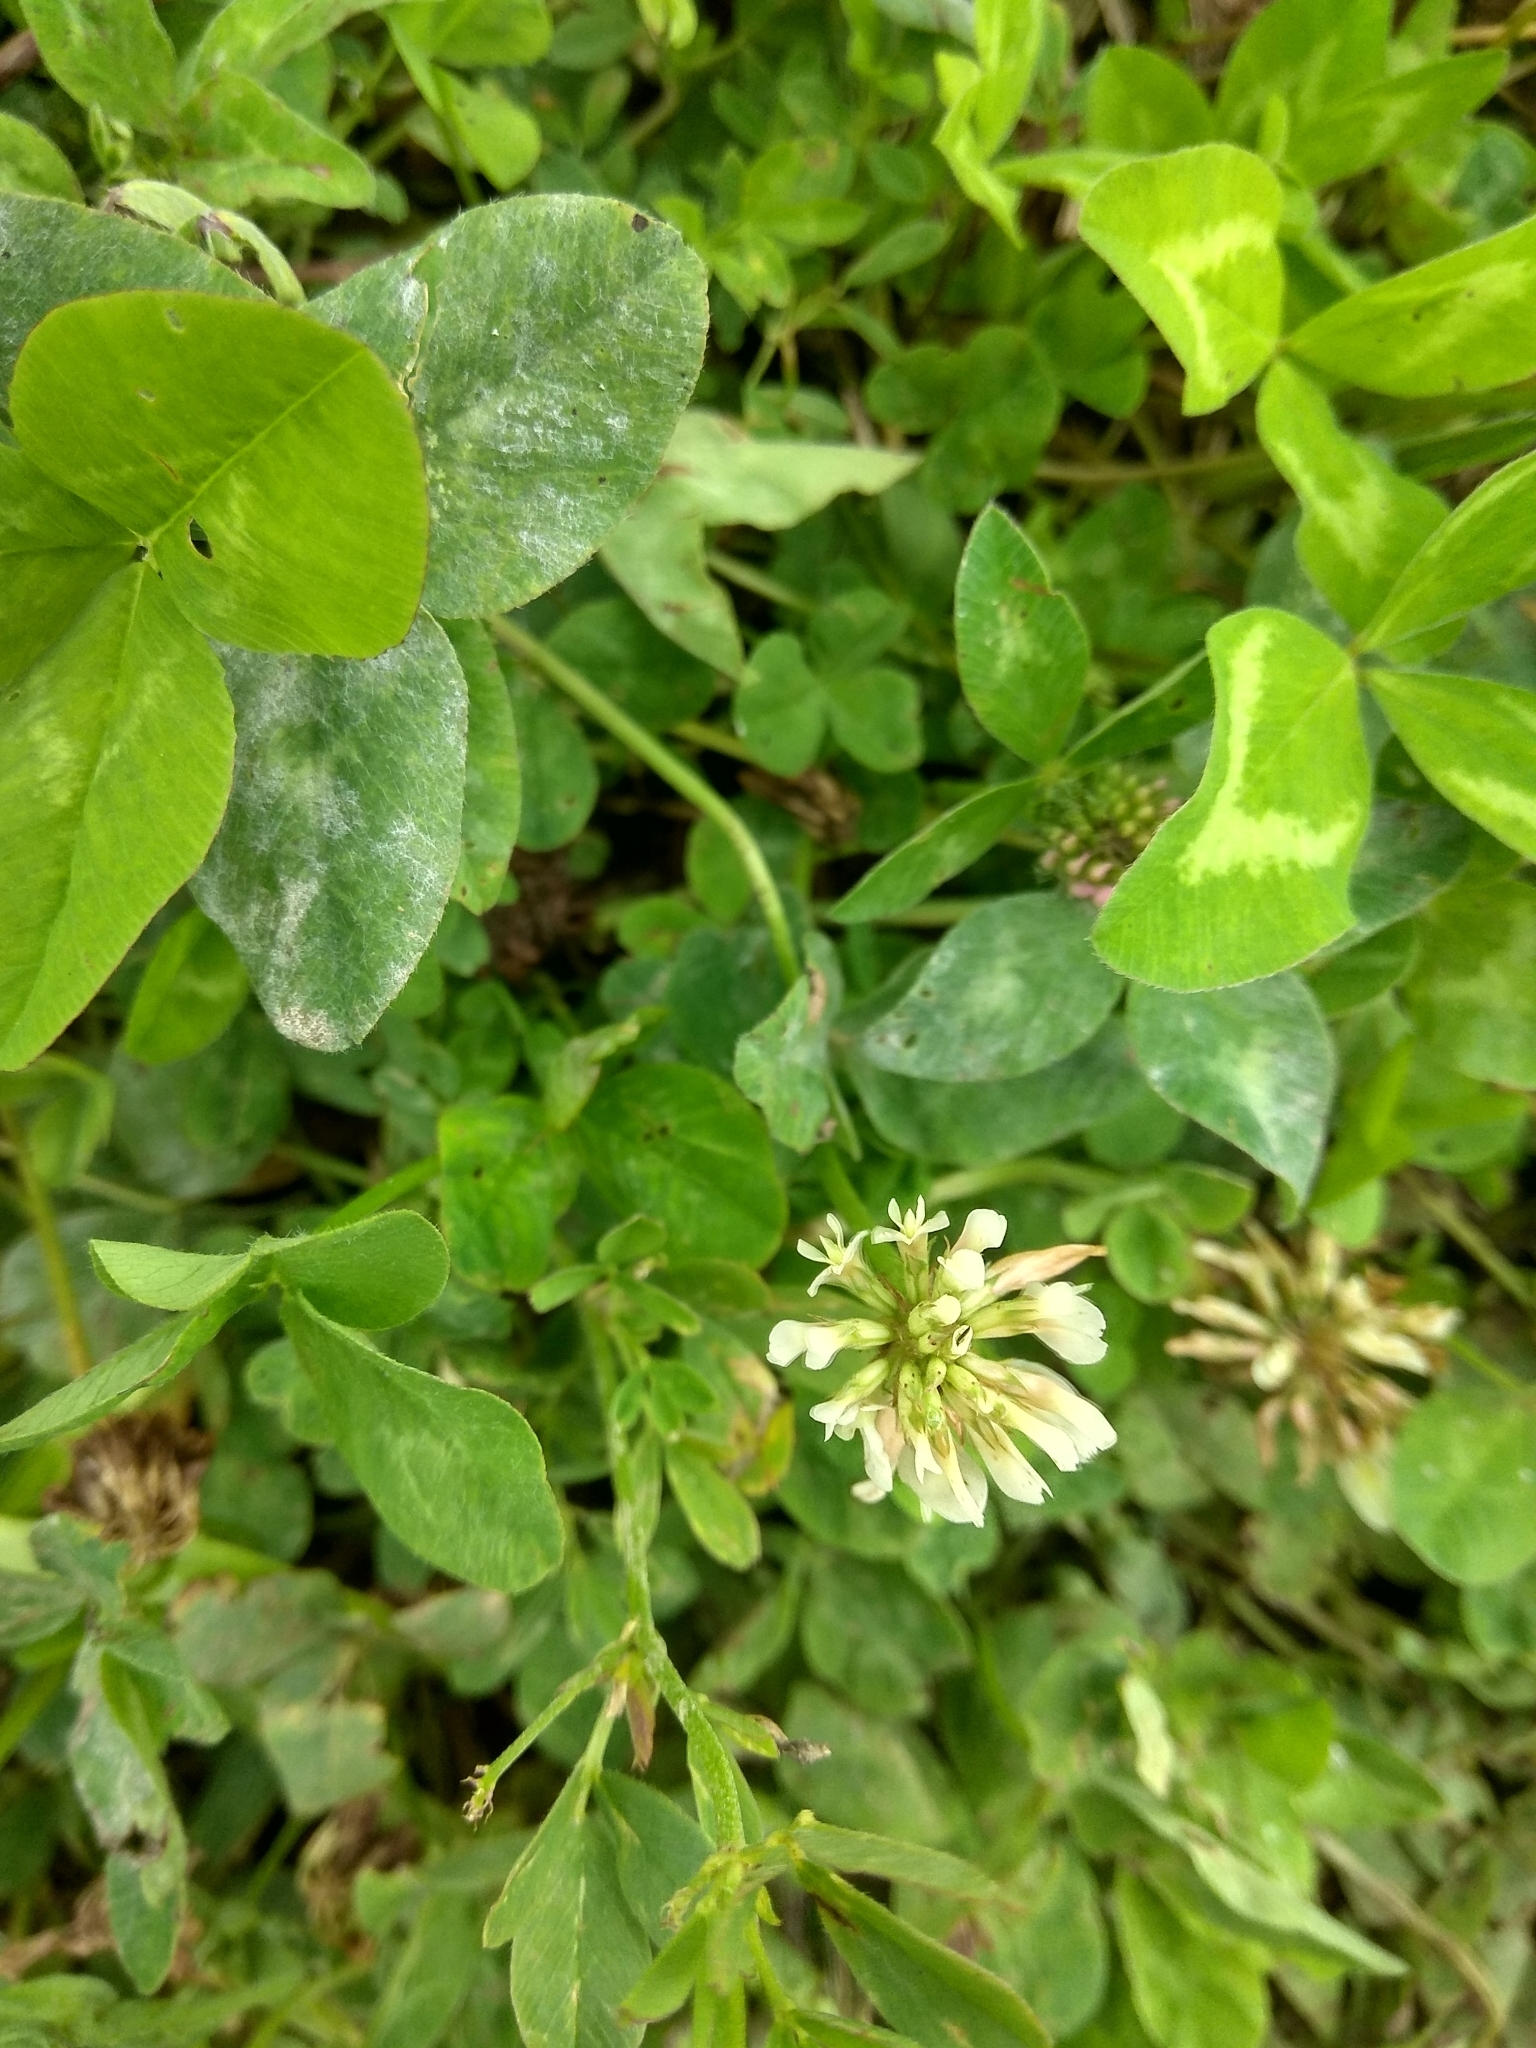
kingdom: Plantae
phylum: Tracheophyta
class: Magnoliopsida
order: Fabales
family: Fabaceae
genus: Trifolium
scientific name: Trifolium repens
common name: White clover
